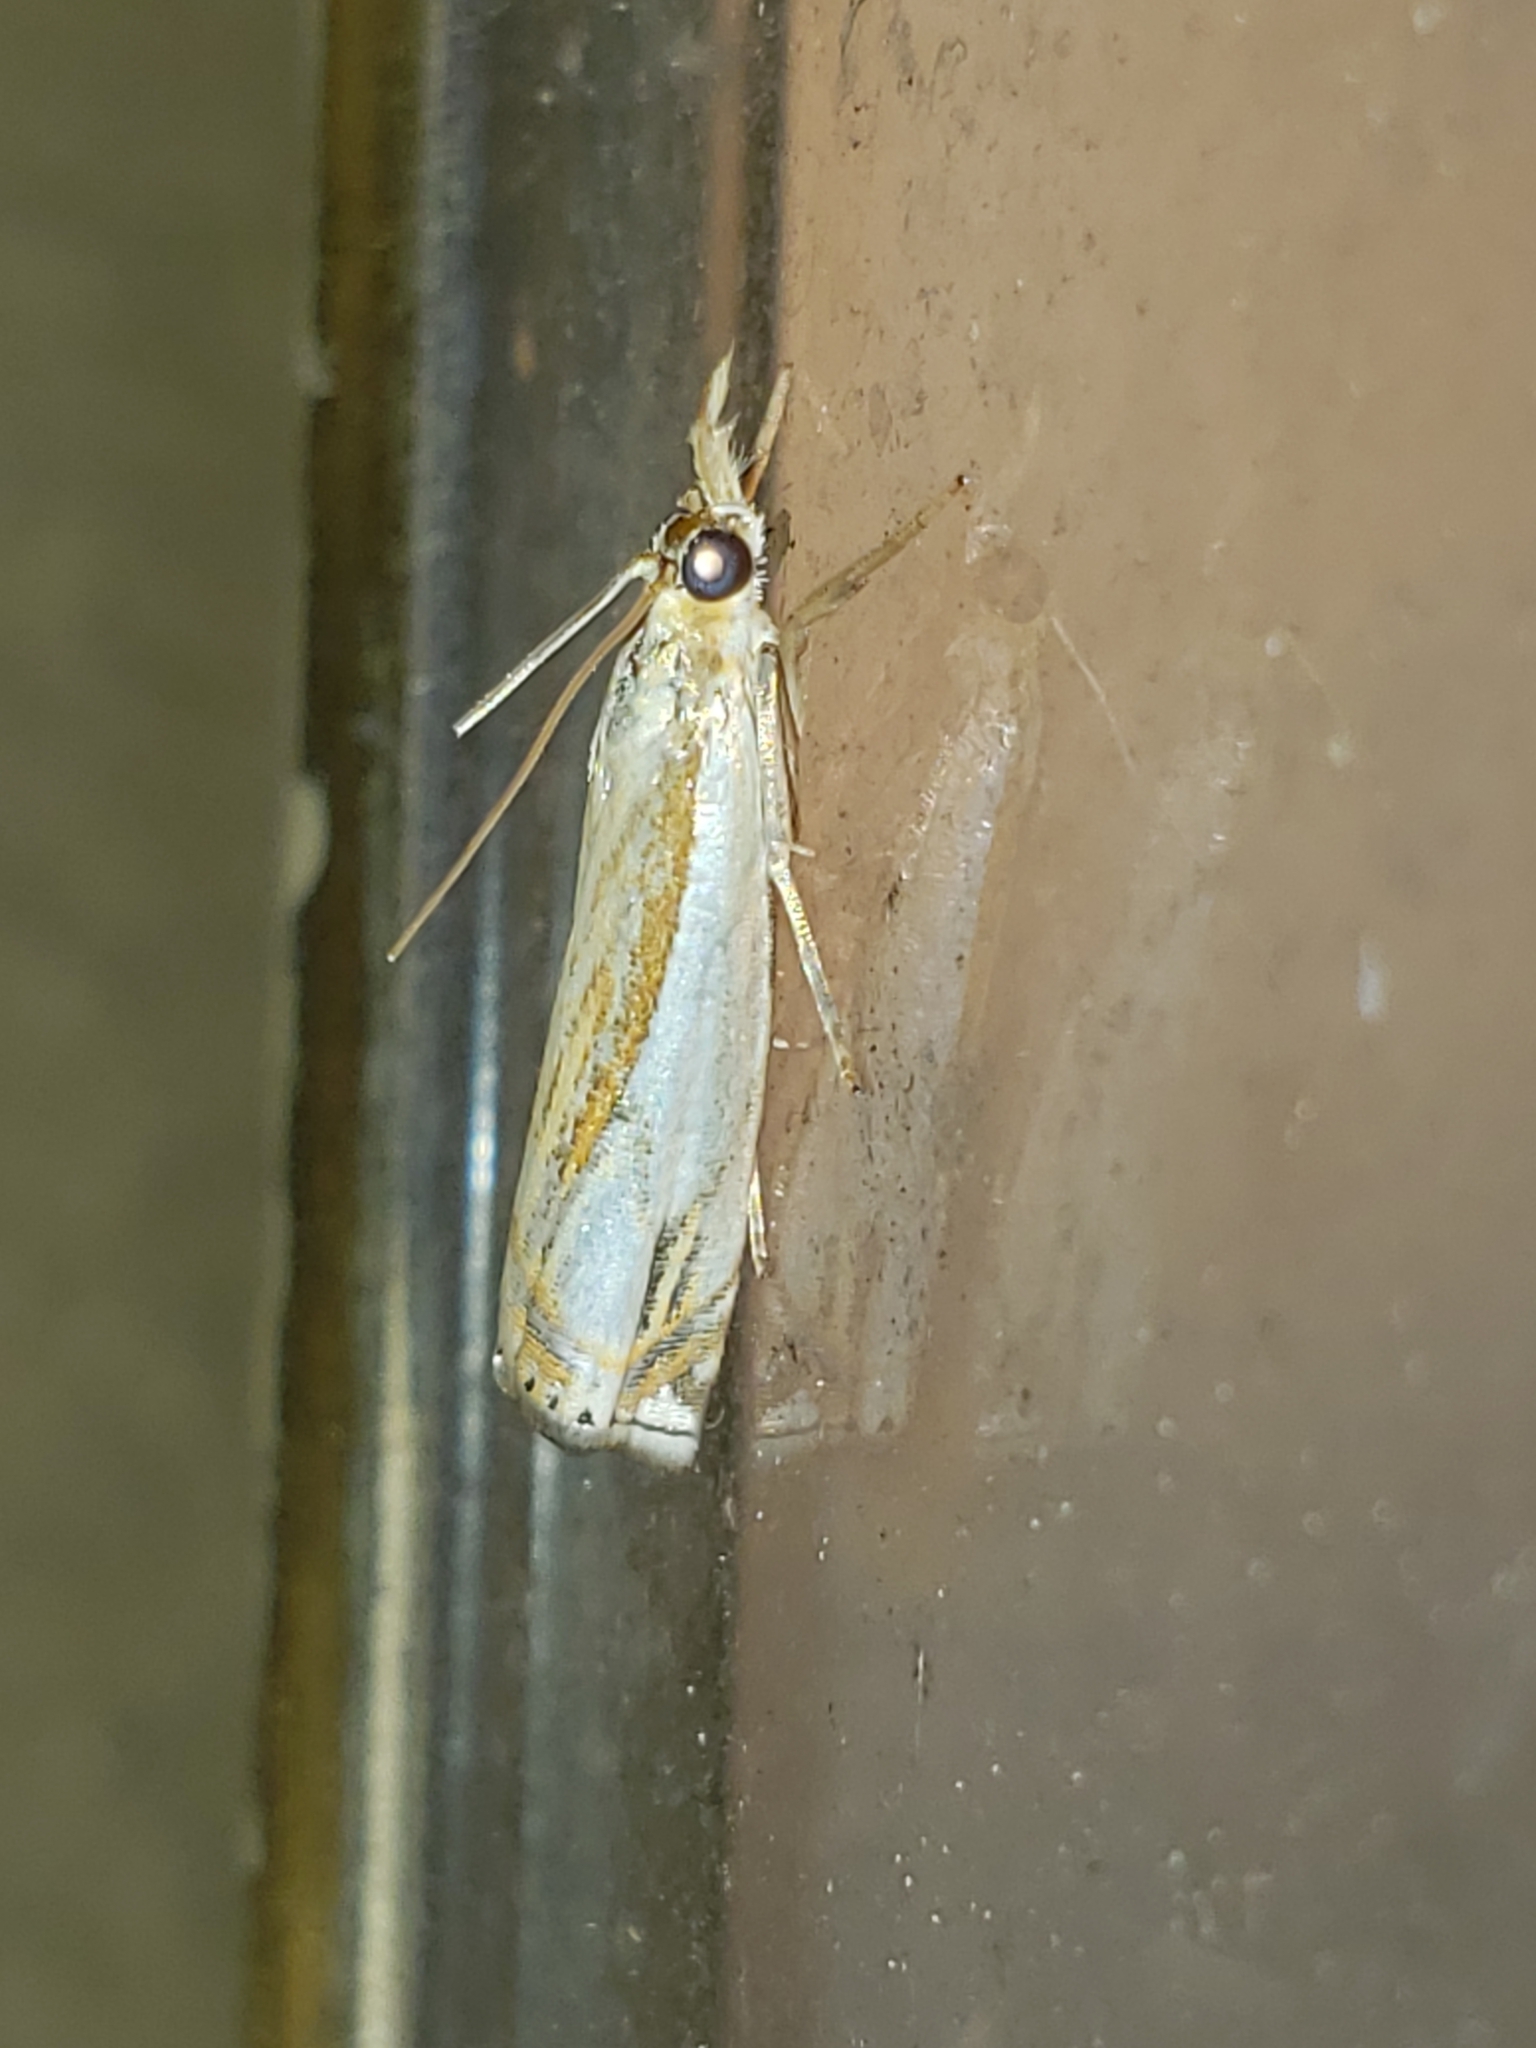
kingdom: Animalia
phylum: Arthropoda
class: Insecta
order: Lepidoptera
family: Crambidae
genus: Crambus
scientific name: Crambus agitatellus
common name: Double-banded grass-veneer
